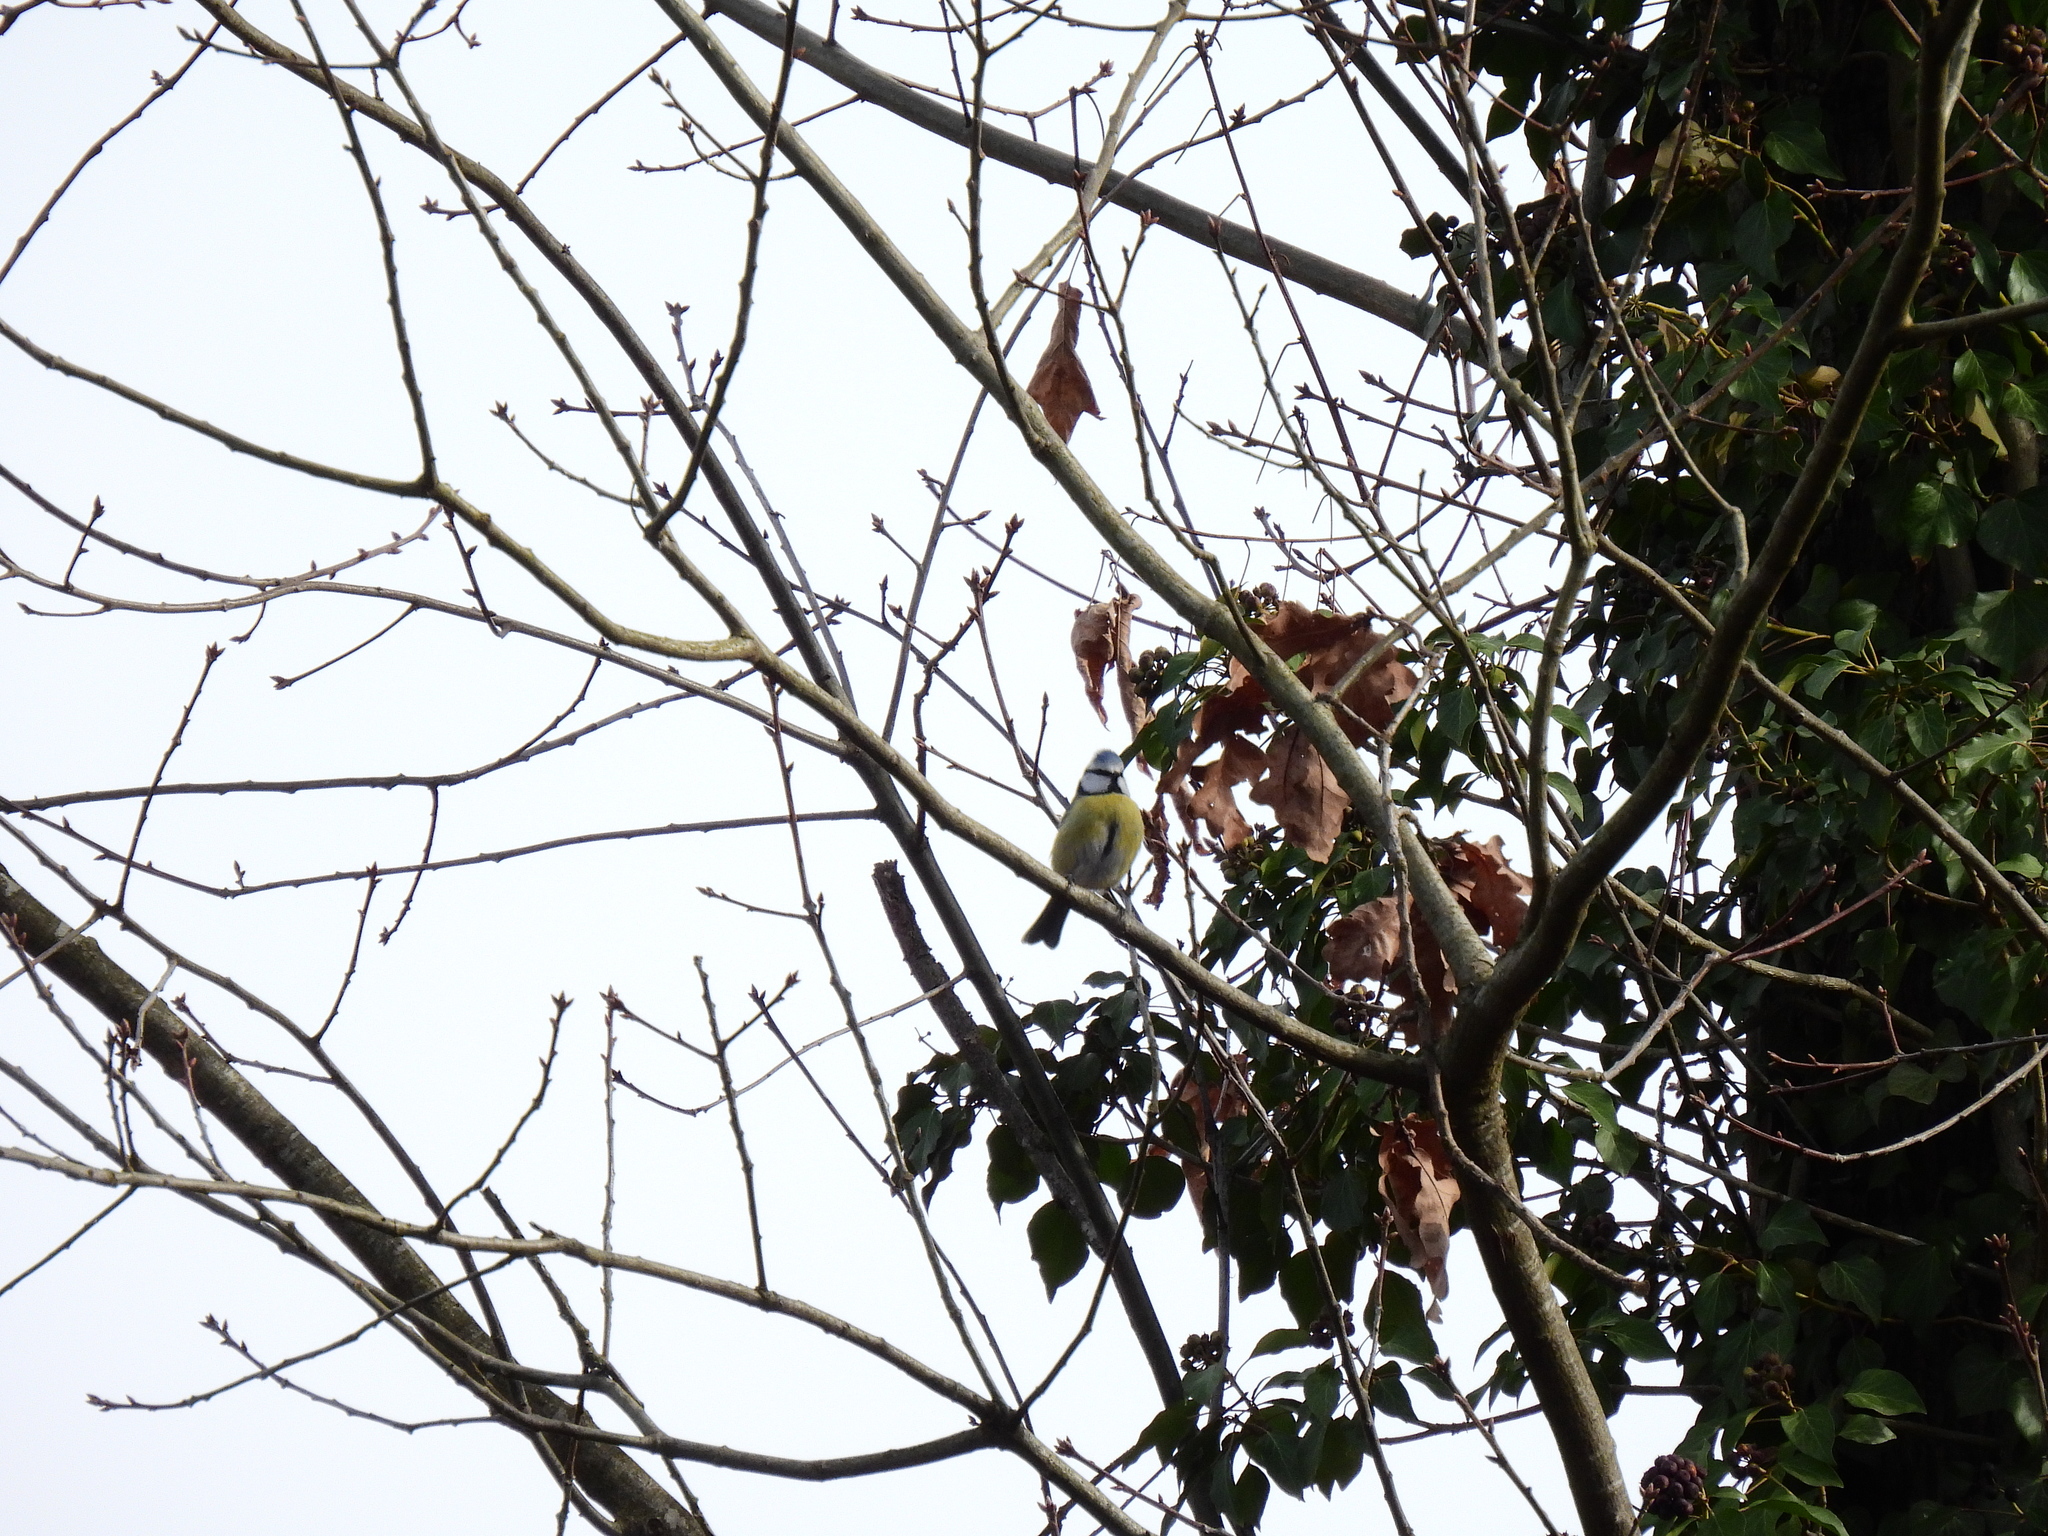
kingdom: Animalia
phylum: Chordata
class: Aves
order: Passeriformes
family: Paridae
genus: Cyanistes
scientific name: Cyanistes caeruleus
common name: Eurasian blue tit
